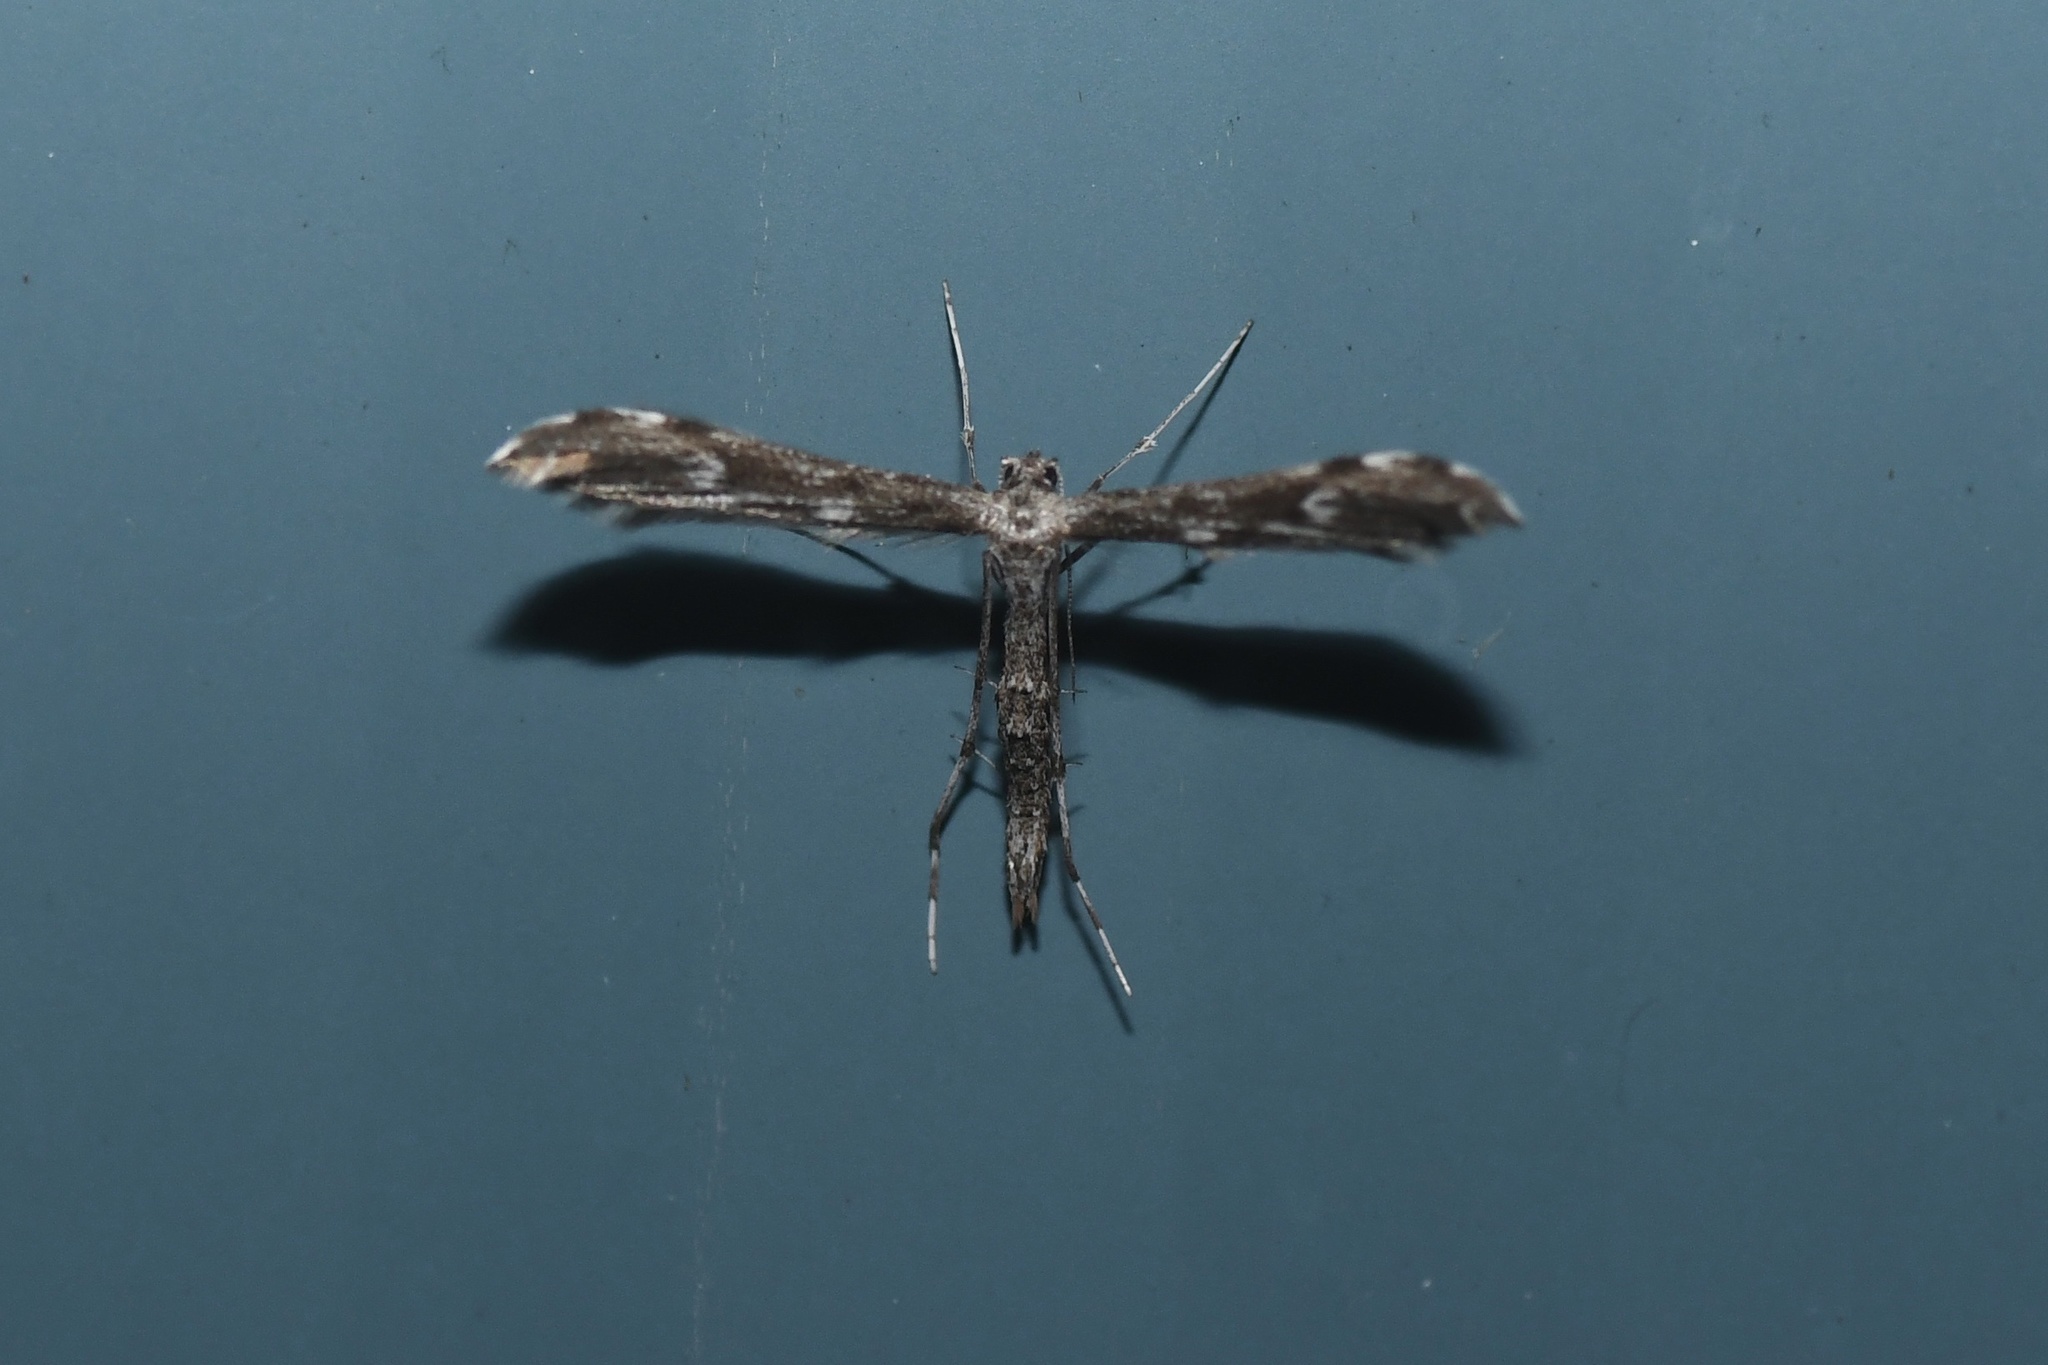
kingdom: Animalia
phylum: Arthropoda
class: Insecta
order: Lepidoptera
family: Pterophoridae
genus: Hellinsia
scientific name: Hellinsia inquinatus
